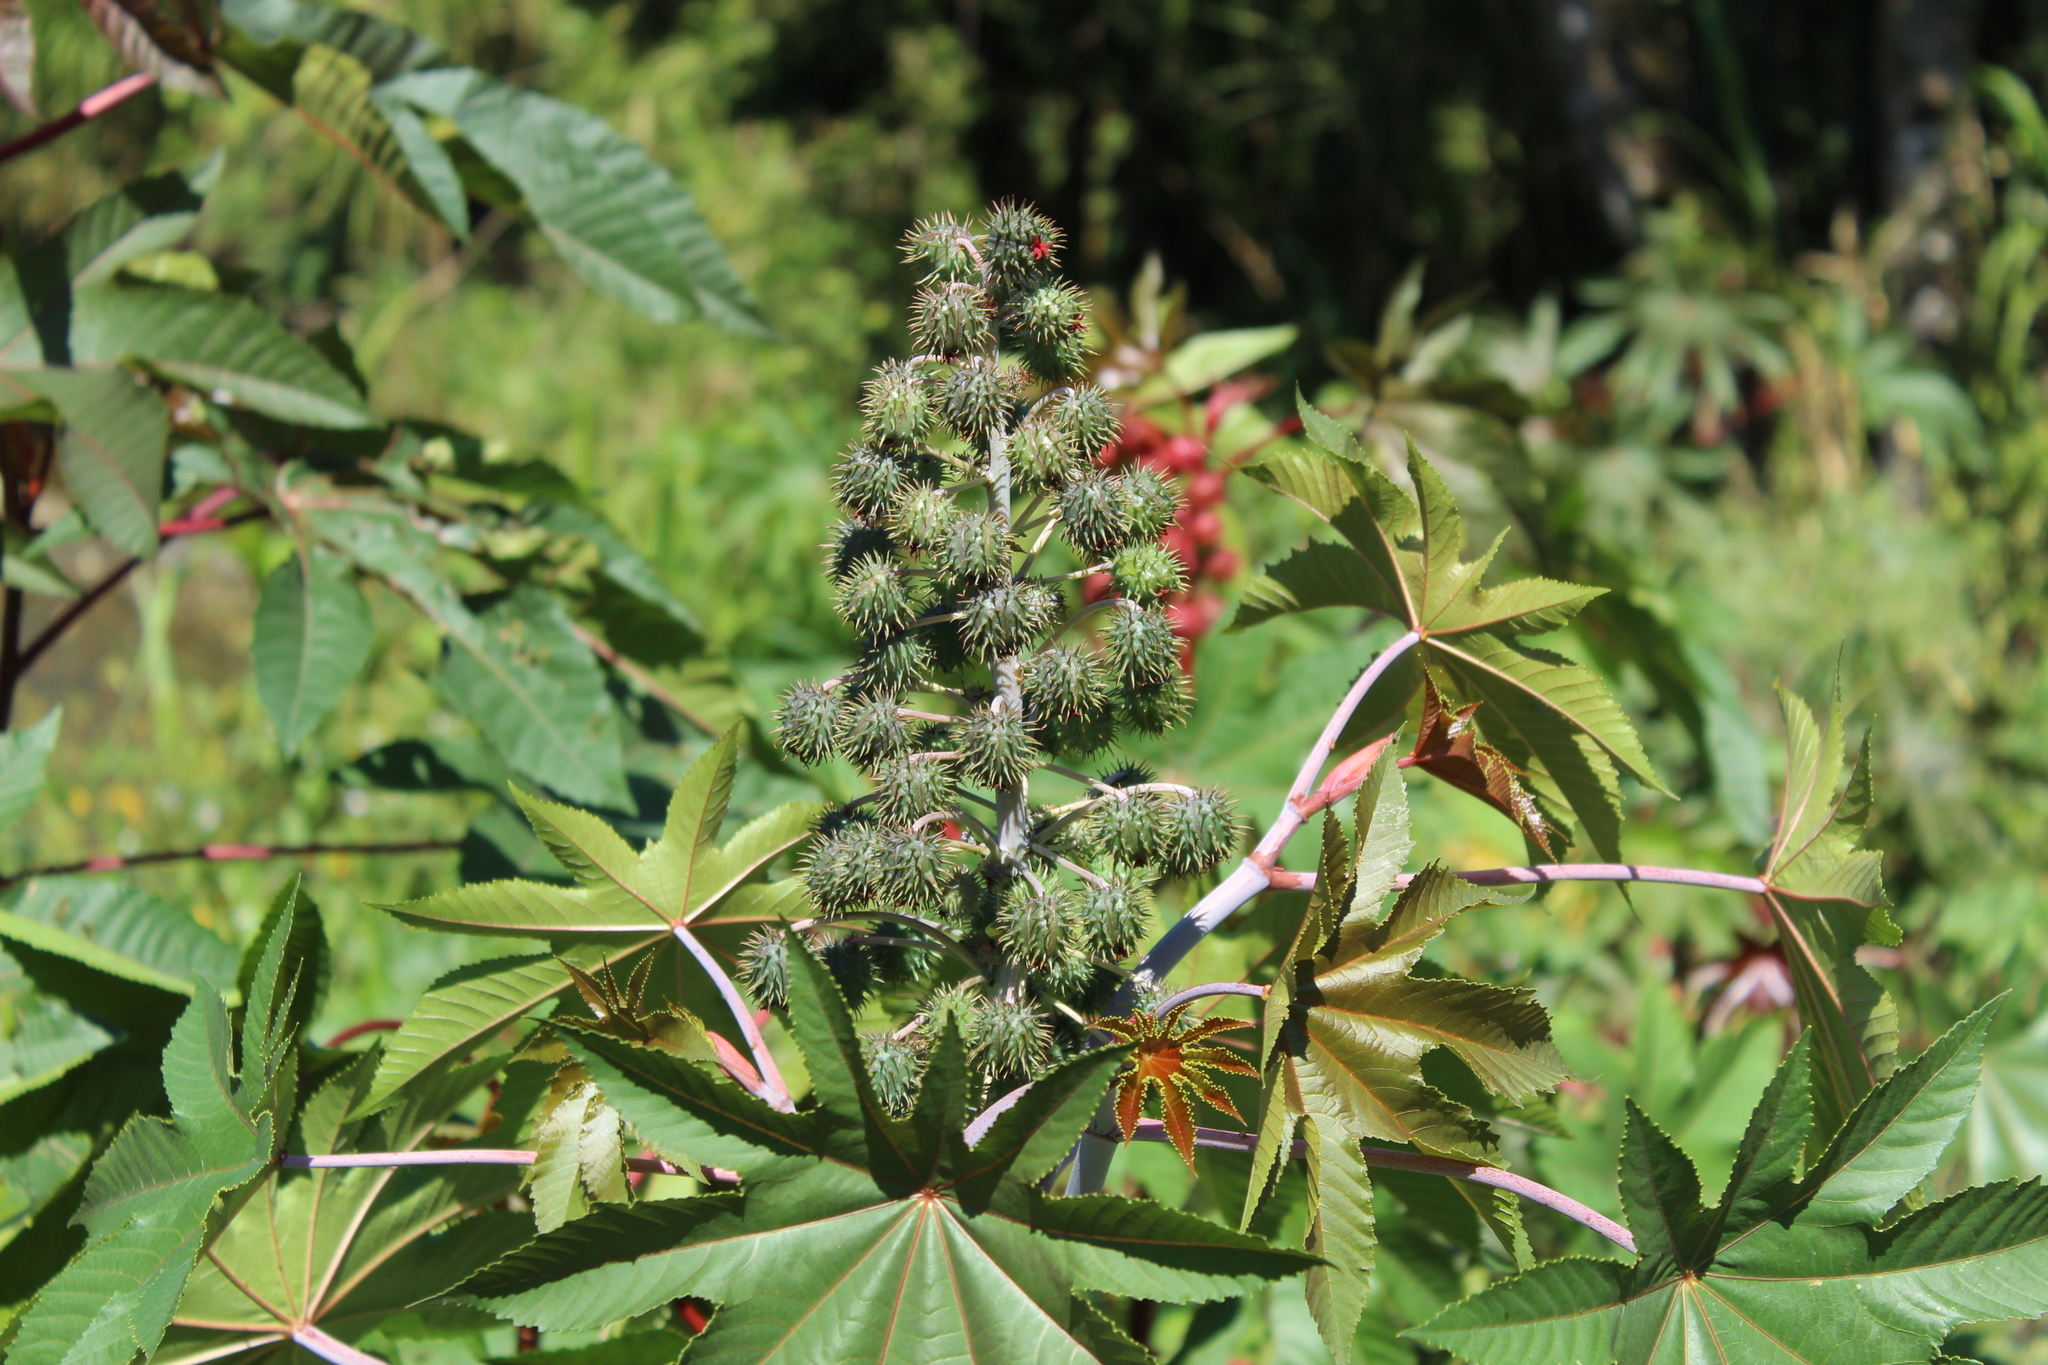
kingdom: Plantae
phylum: Tracheophyta
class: Magnoliopsida
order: Malpighiales
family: Euphorbiaceae
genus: Ricinus
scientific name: Ricinus communis
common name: Castor-oil-plant
